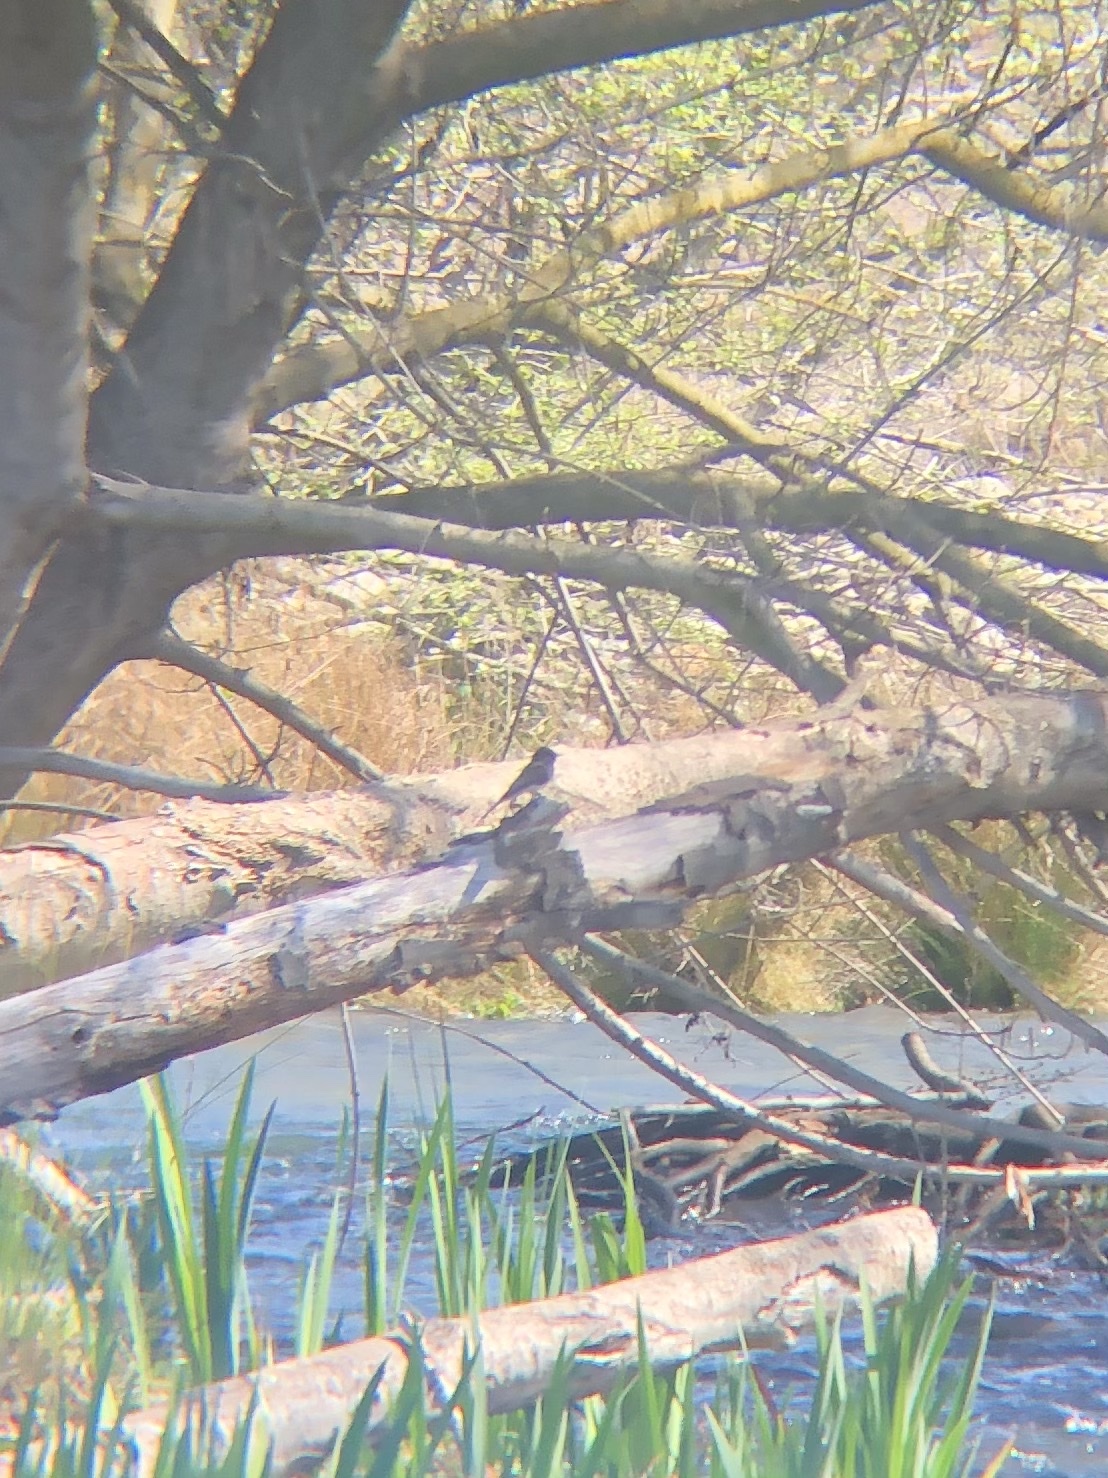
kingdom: Animalia
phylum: Chordata
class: Aves
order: Passeriformes
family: Tyrannidae
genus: Sayornis
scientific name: Sayornis nigricans
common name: Black phoebe
